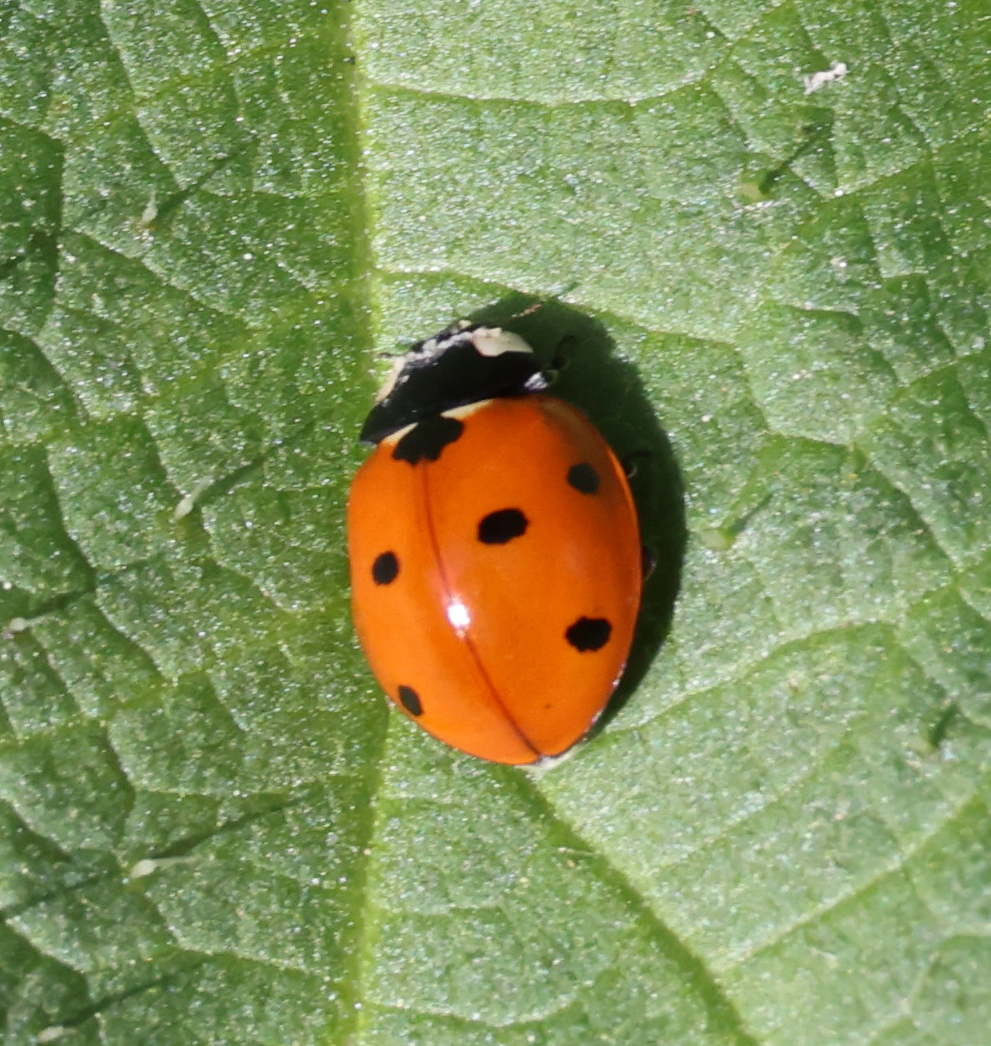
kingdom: Animalia
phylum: Arthropoda
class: Insecta
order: Coleoptera
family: Coccinellidae
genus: Coccinella
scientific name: Coccinella septempunctata
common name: Sevenspotted lady beetle
